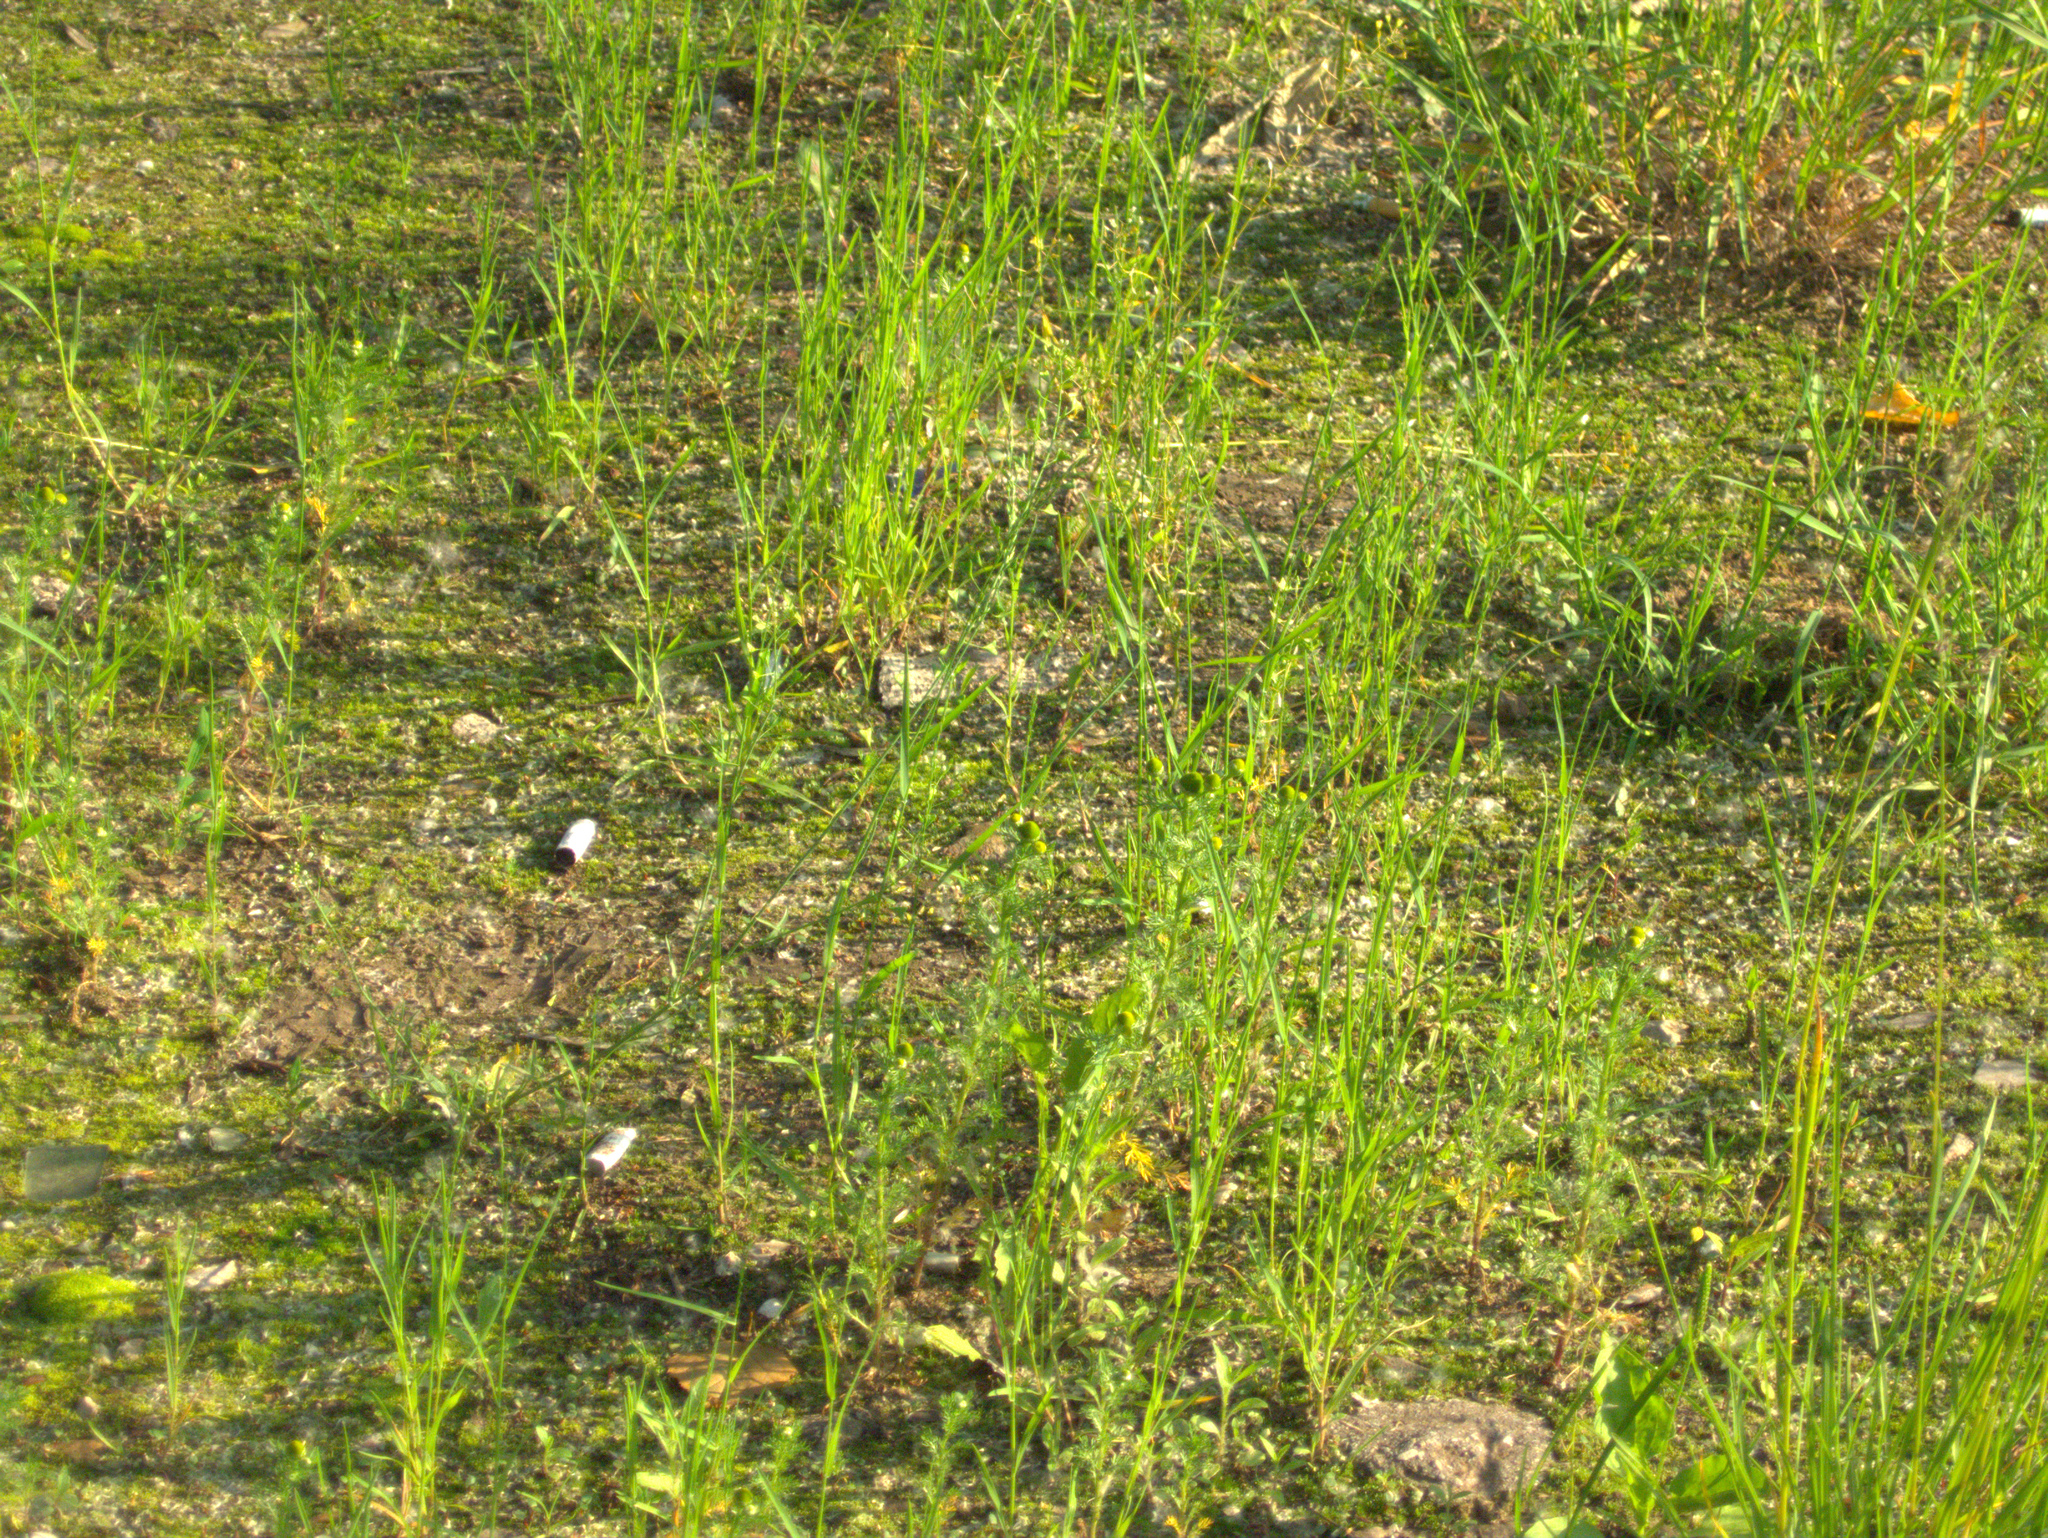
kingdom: Plantae
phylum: Tracheophyta
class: Magnoliopsida
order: Asterales
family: Asteraceae
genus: Matricaria
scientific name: Matricaria discoidea
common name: Disc mayweed
